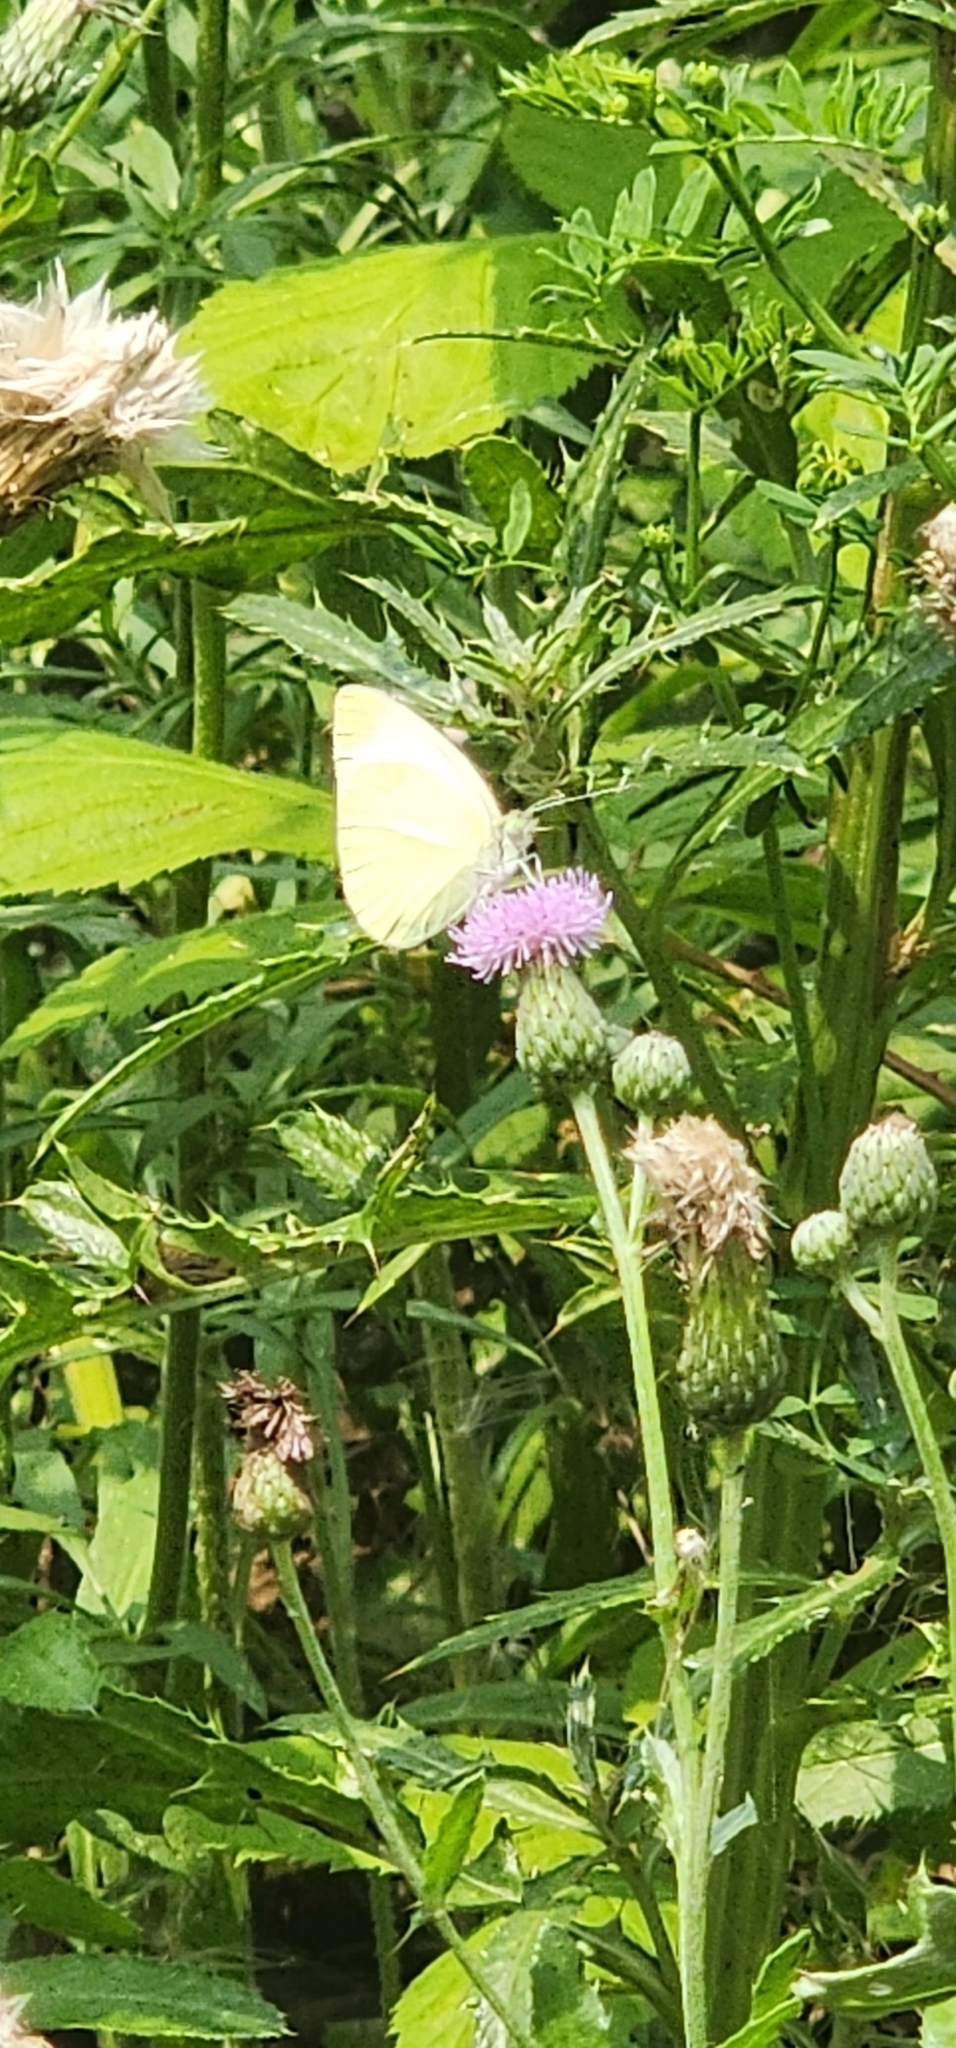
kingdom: Animalia
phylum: Arthropoda
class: Insecta
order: Lepidoptera
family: Pieridae
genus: Pieris
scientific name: Pieris rapae
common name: Small white
